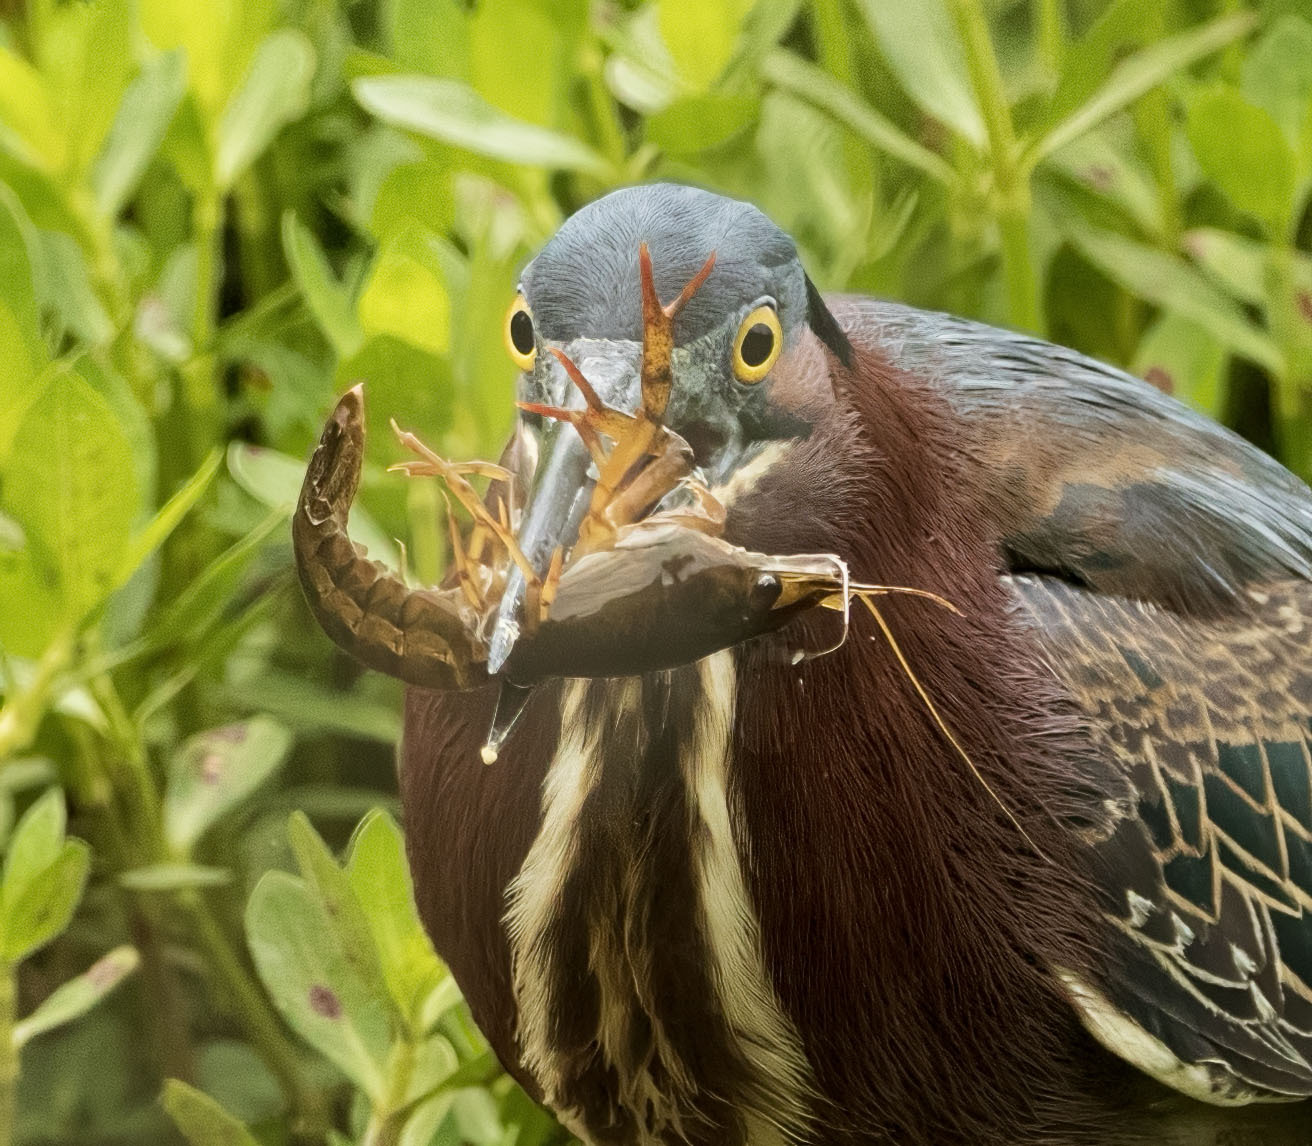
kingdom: Animalia
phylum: Arthropoda
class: Malacostraca
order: Decapoda
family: Cambaridae
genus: Procambarus
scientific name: Procambarus acutus
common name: White river crayfish
